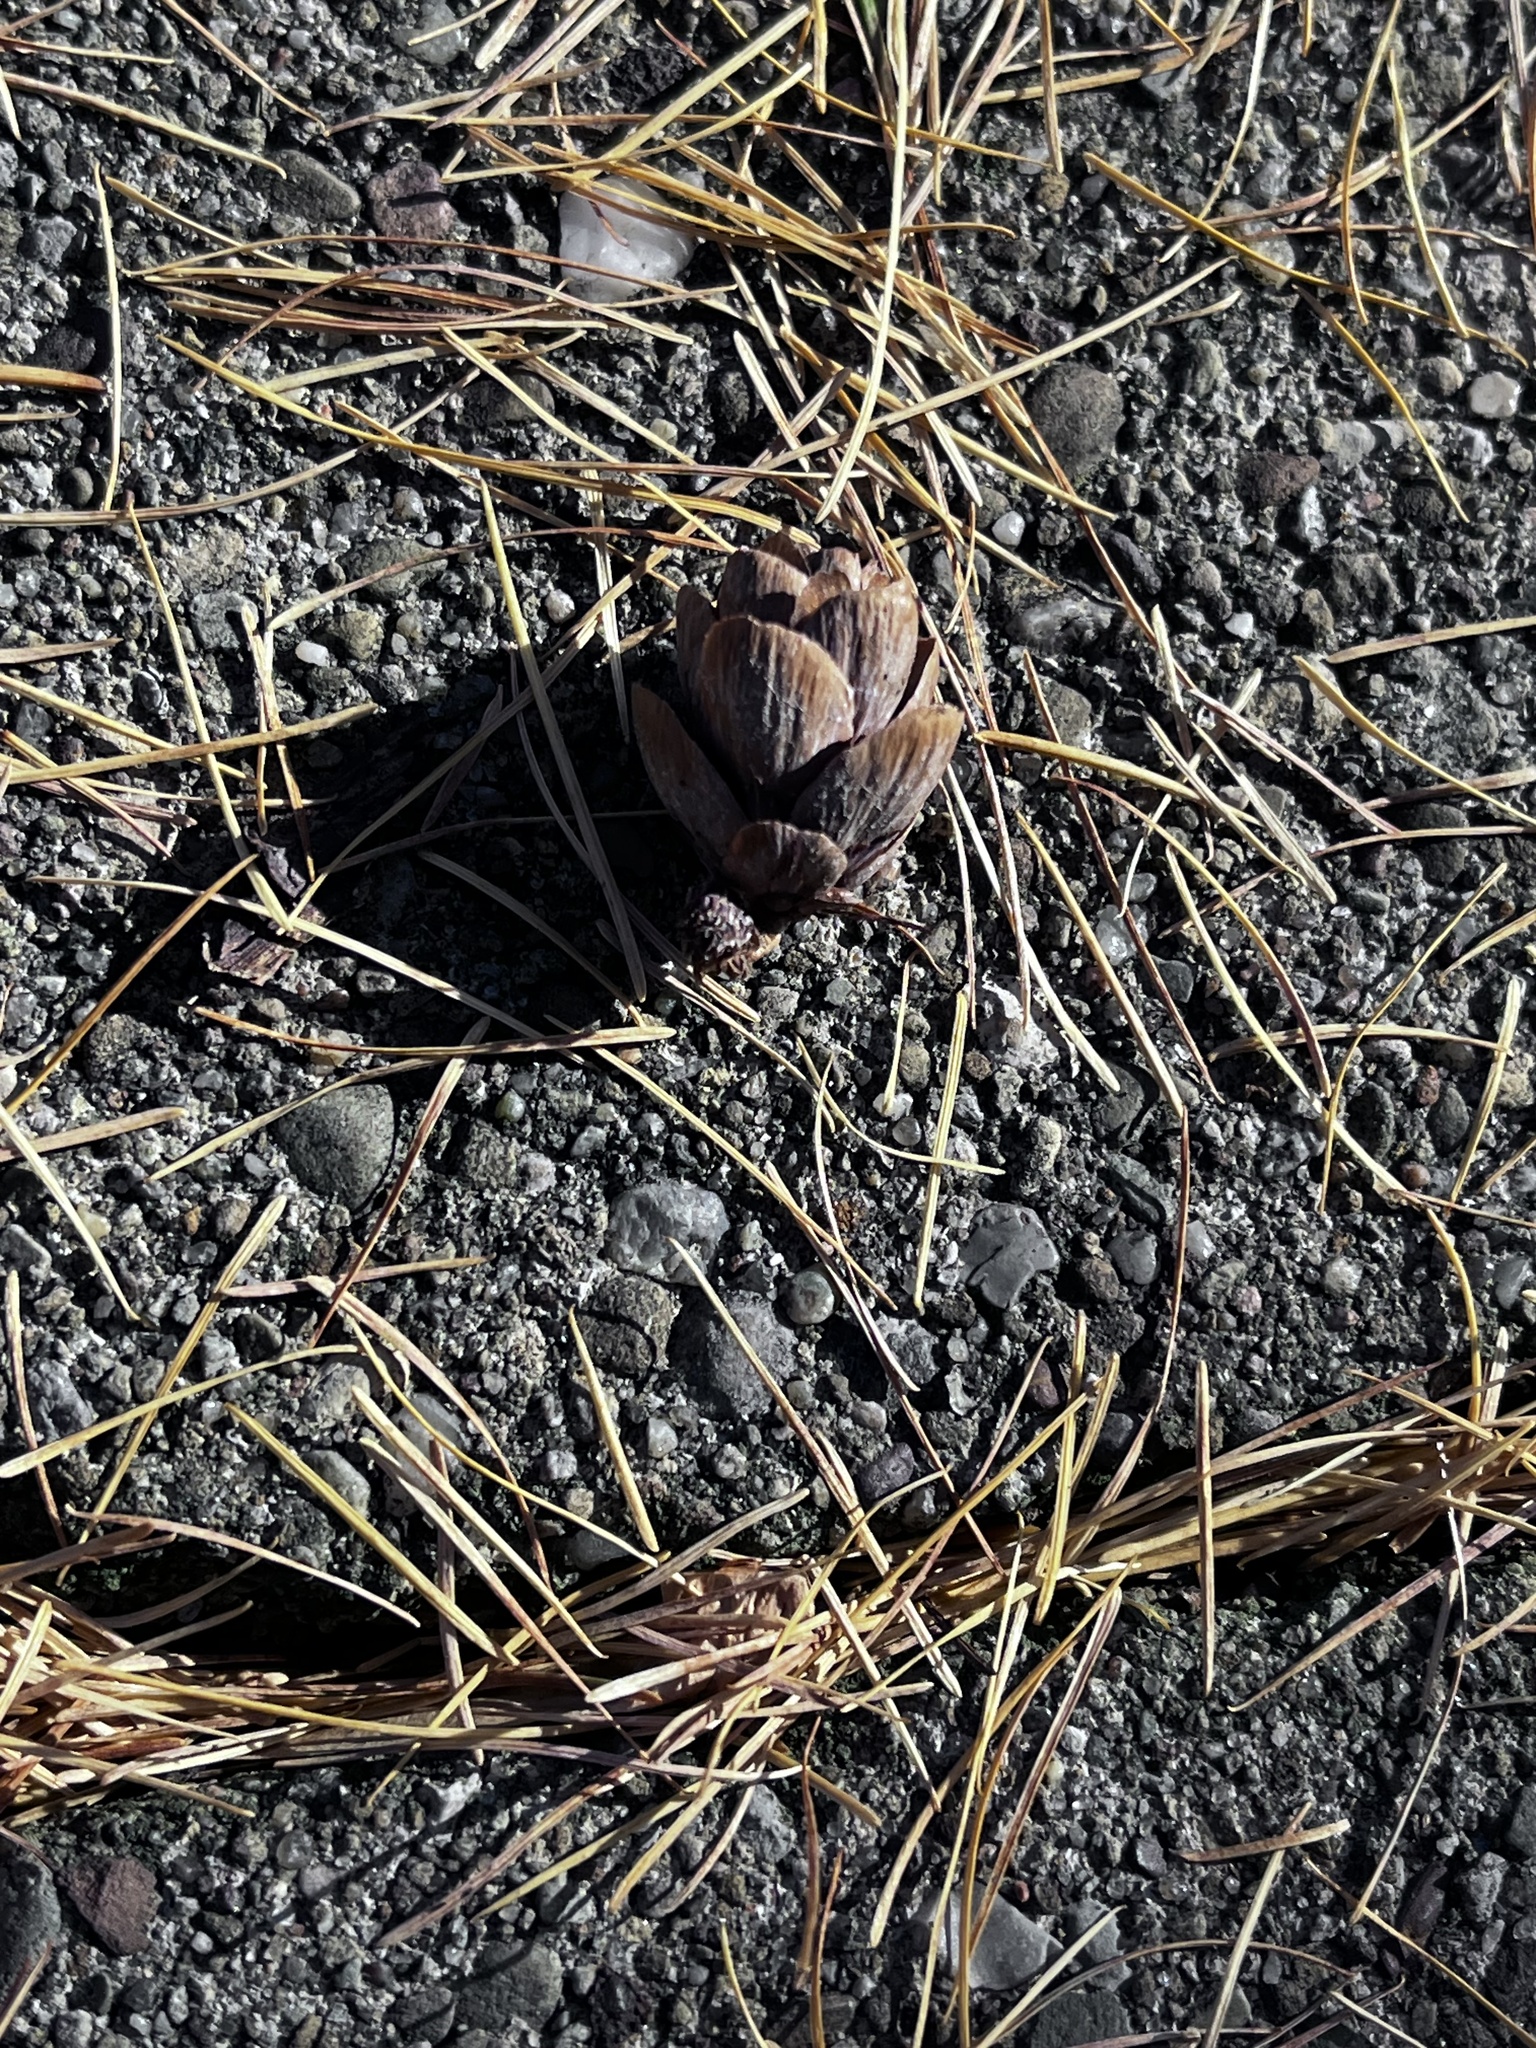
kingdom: Plantae
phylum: Tracheophyta
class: Pinopsida
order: Pinales
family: Pinaceae
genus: Larix
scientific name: Larix laricina
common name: American larch
